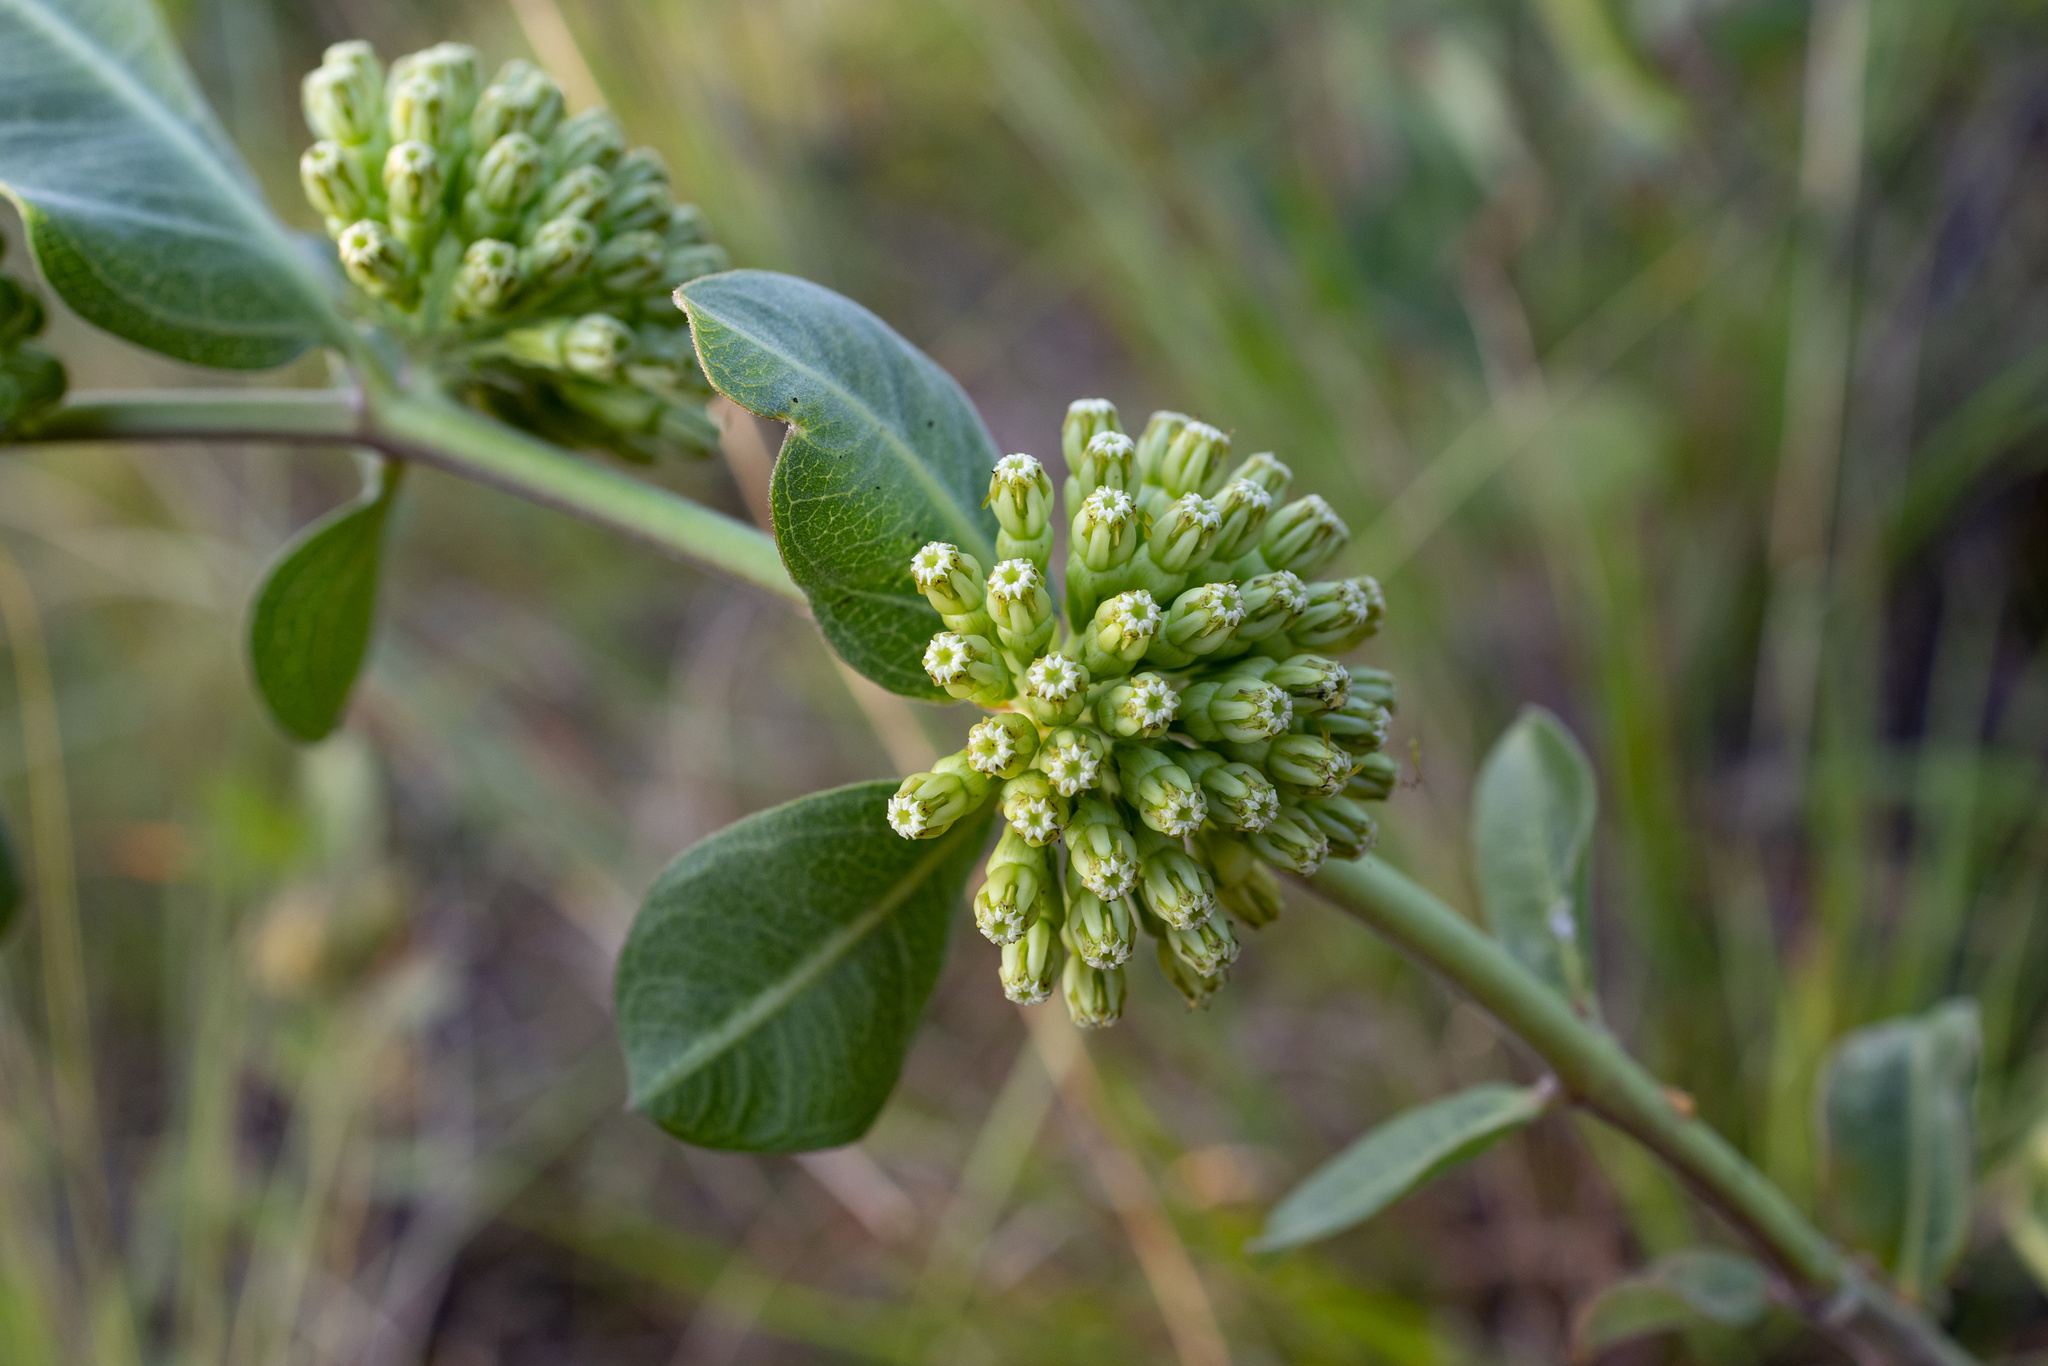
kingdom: Plantae
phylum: Tracheophyta
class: Magnoliopsida
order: Gentianales
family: Apocynaceae
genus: Asclepias
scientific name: Asclepias viridiflora
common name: Green comet milkweed
